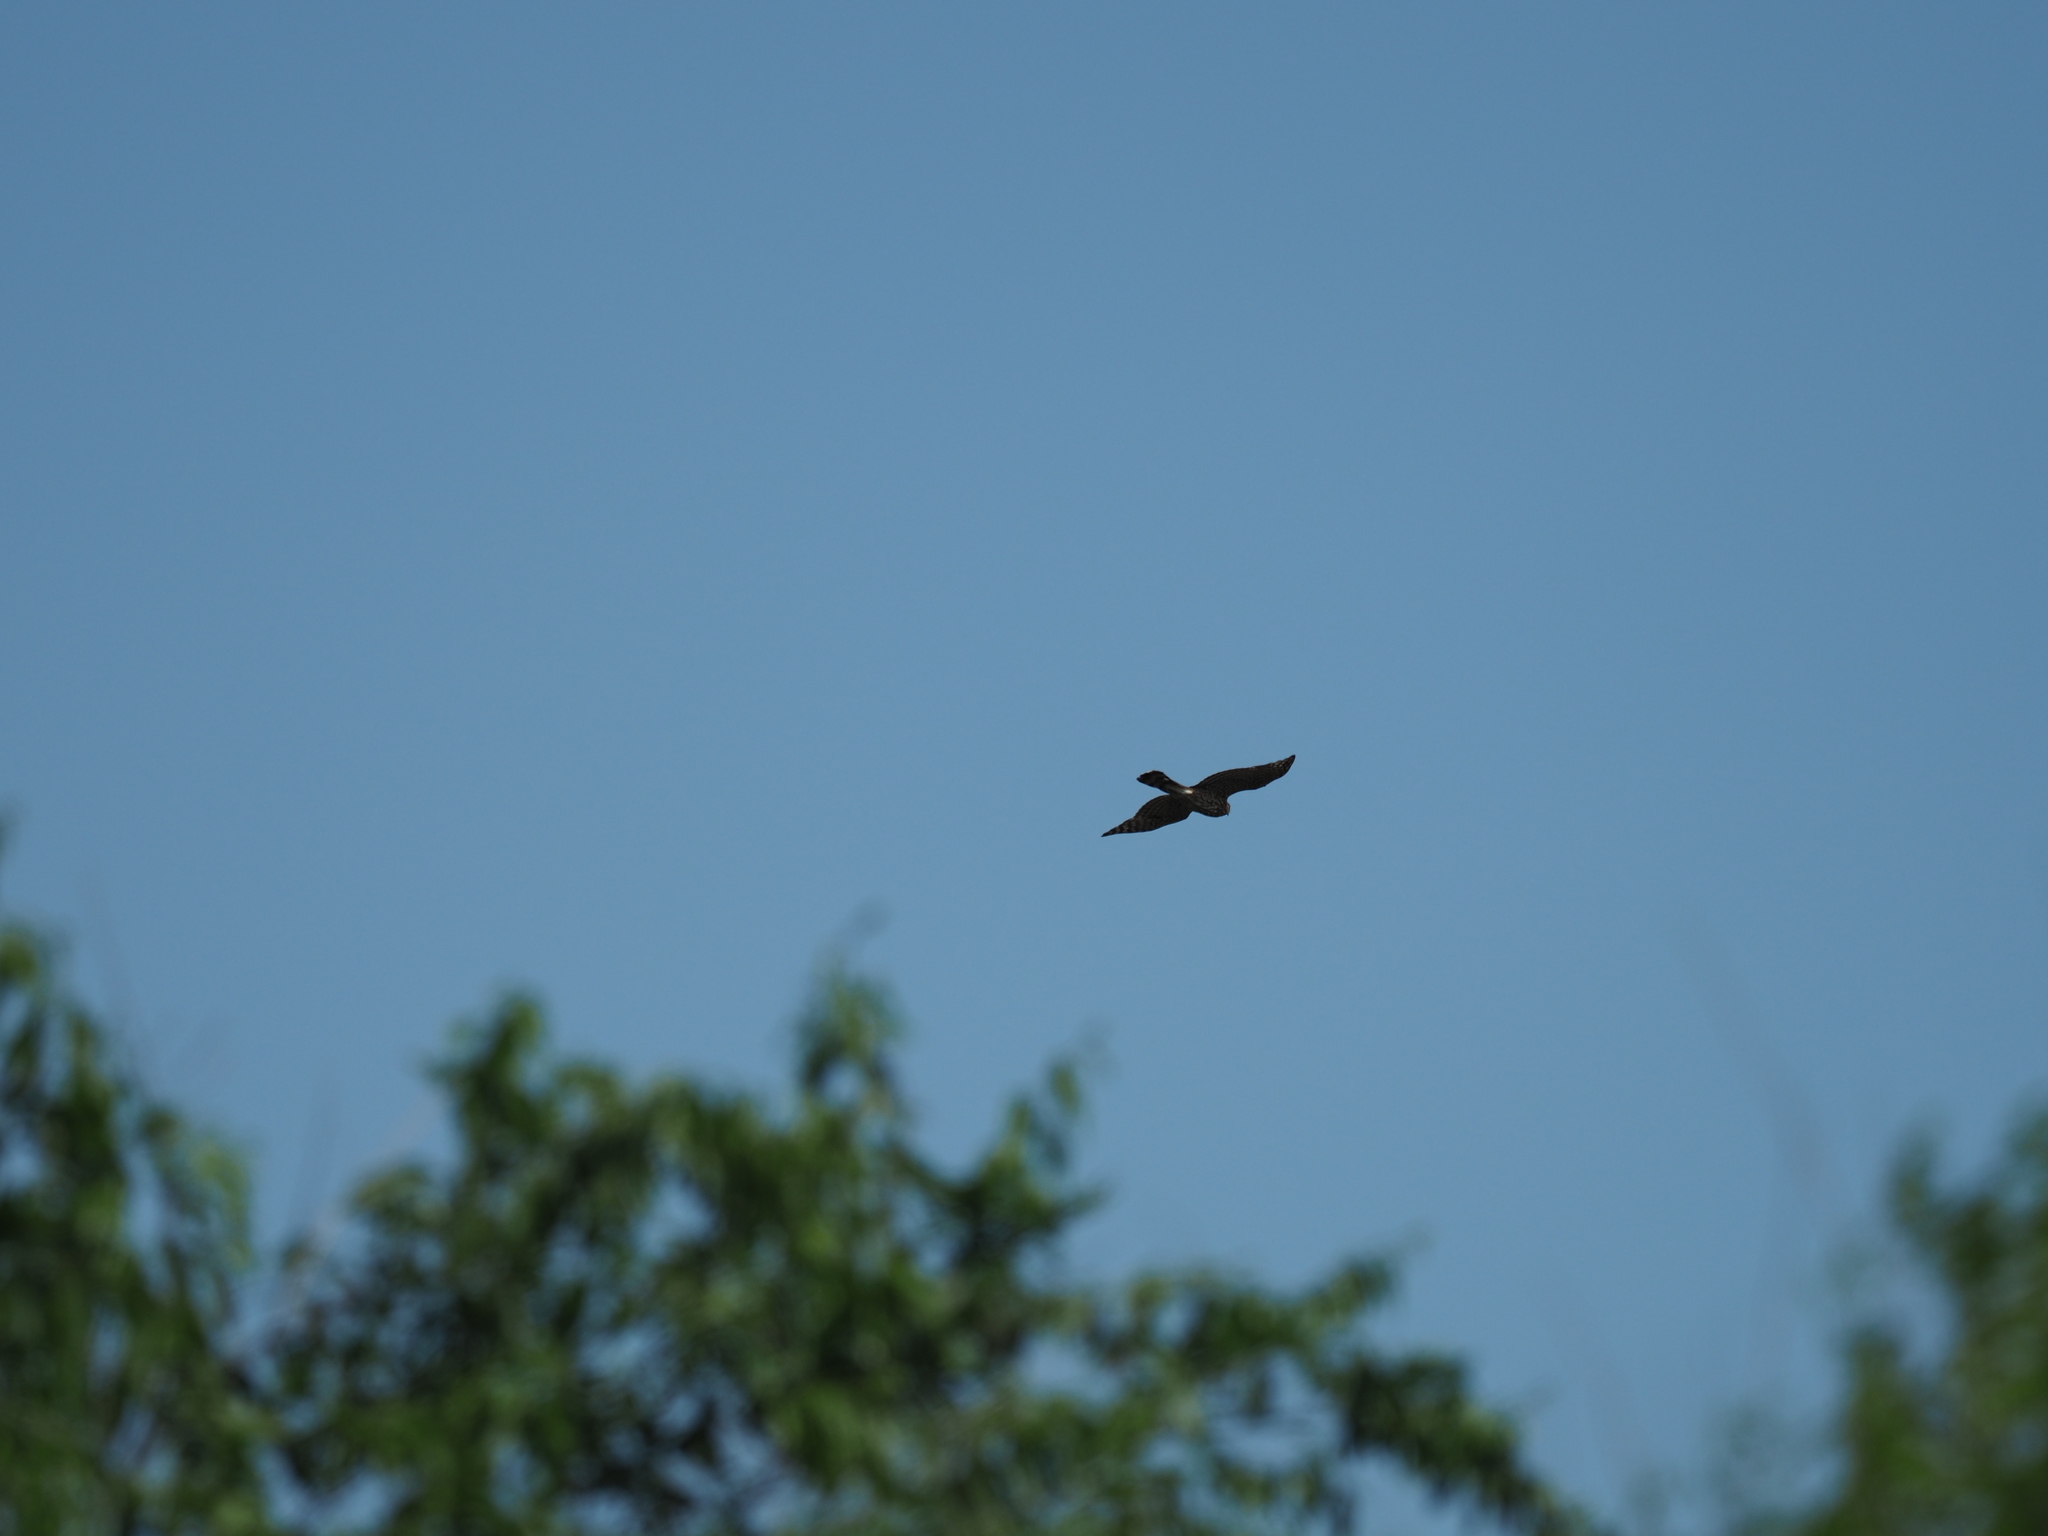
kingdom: Animalia
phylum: Chordata
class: Aves
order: Accipitriformes
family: Accipitridae
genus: Accipiter
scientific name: Accipiter cooperii
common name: Cooper's hawk
